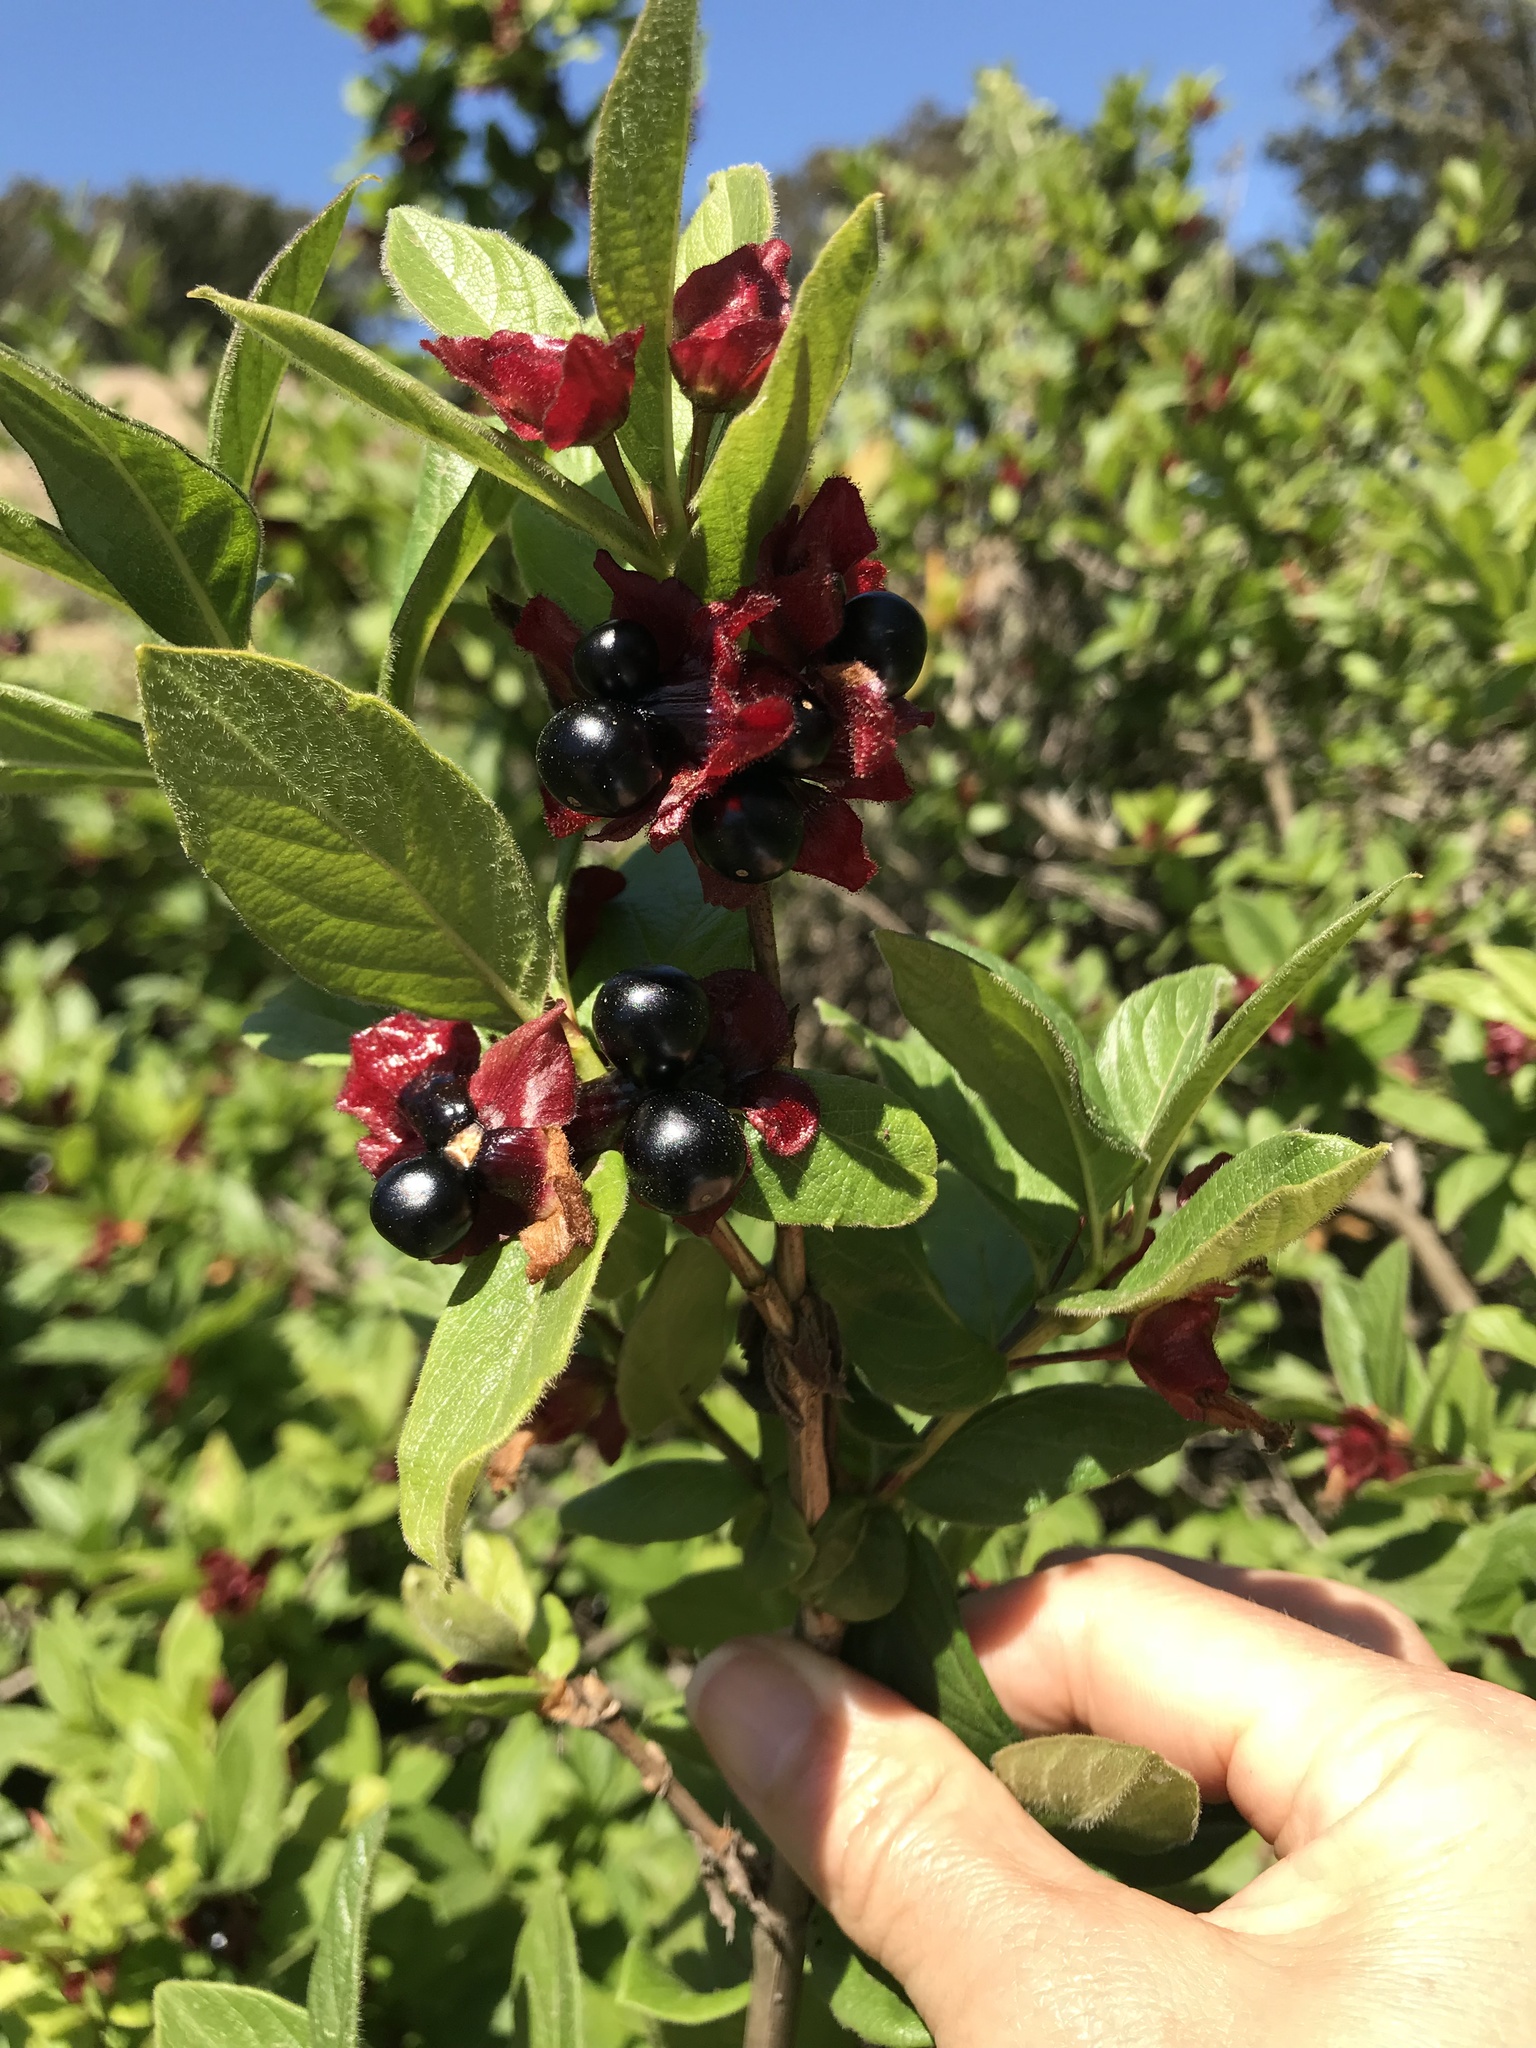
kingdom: Plantae
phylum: Tracheophyta
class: Magnoliopsida
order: Dipsacales
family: Caprifoliaceae
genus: Lonicera
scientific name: Lonicera involucrata
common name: Californian honeysuckle
